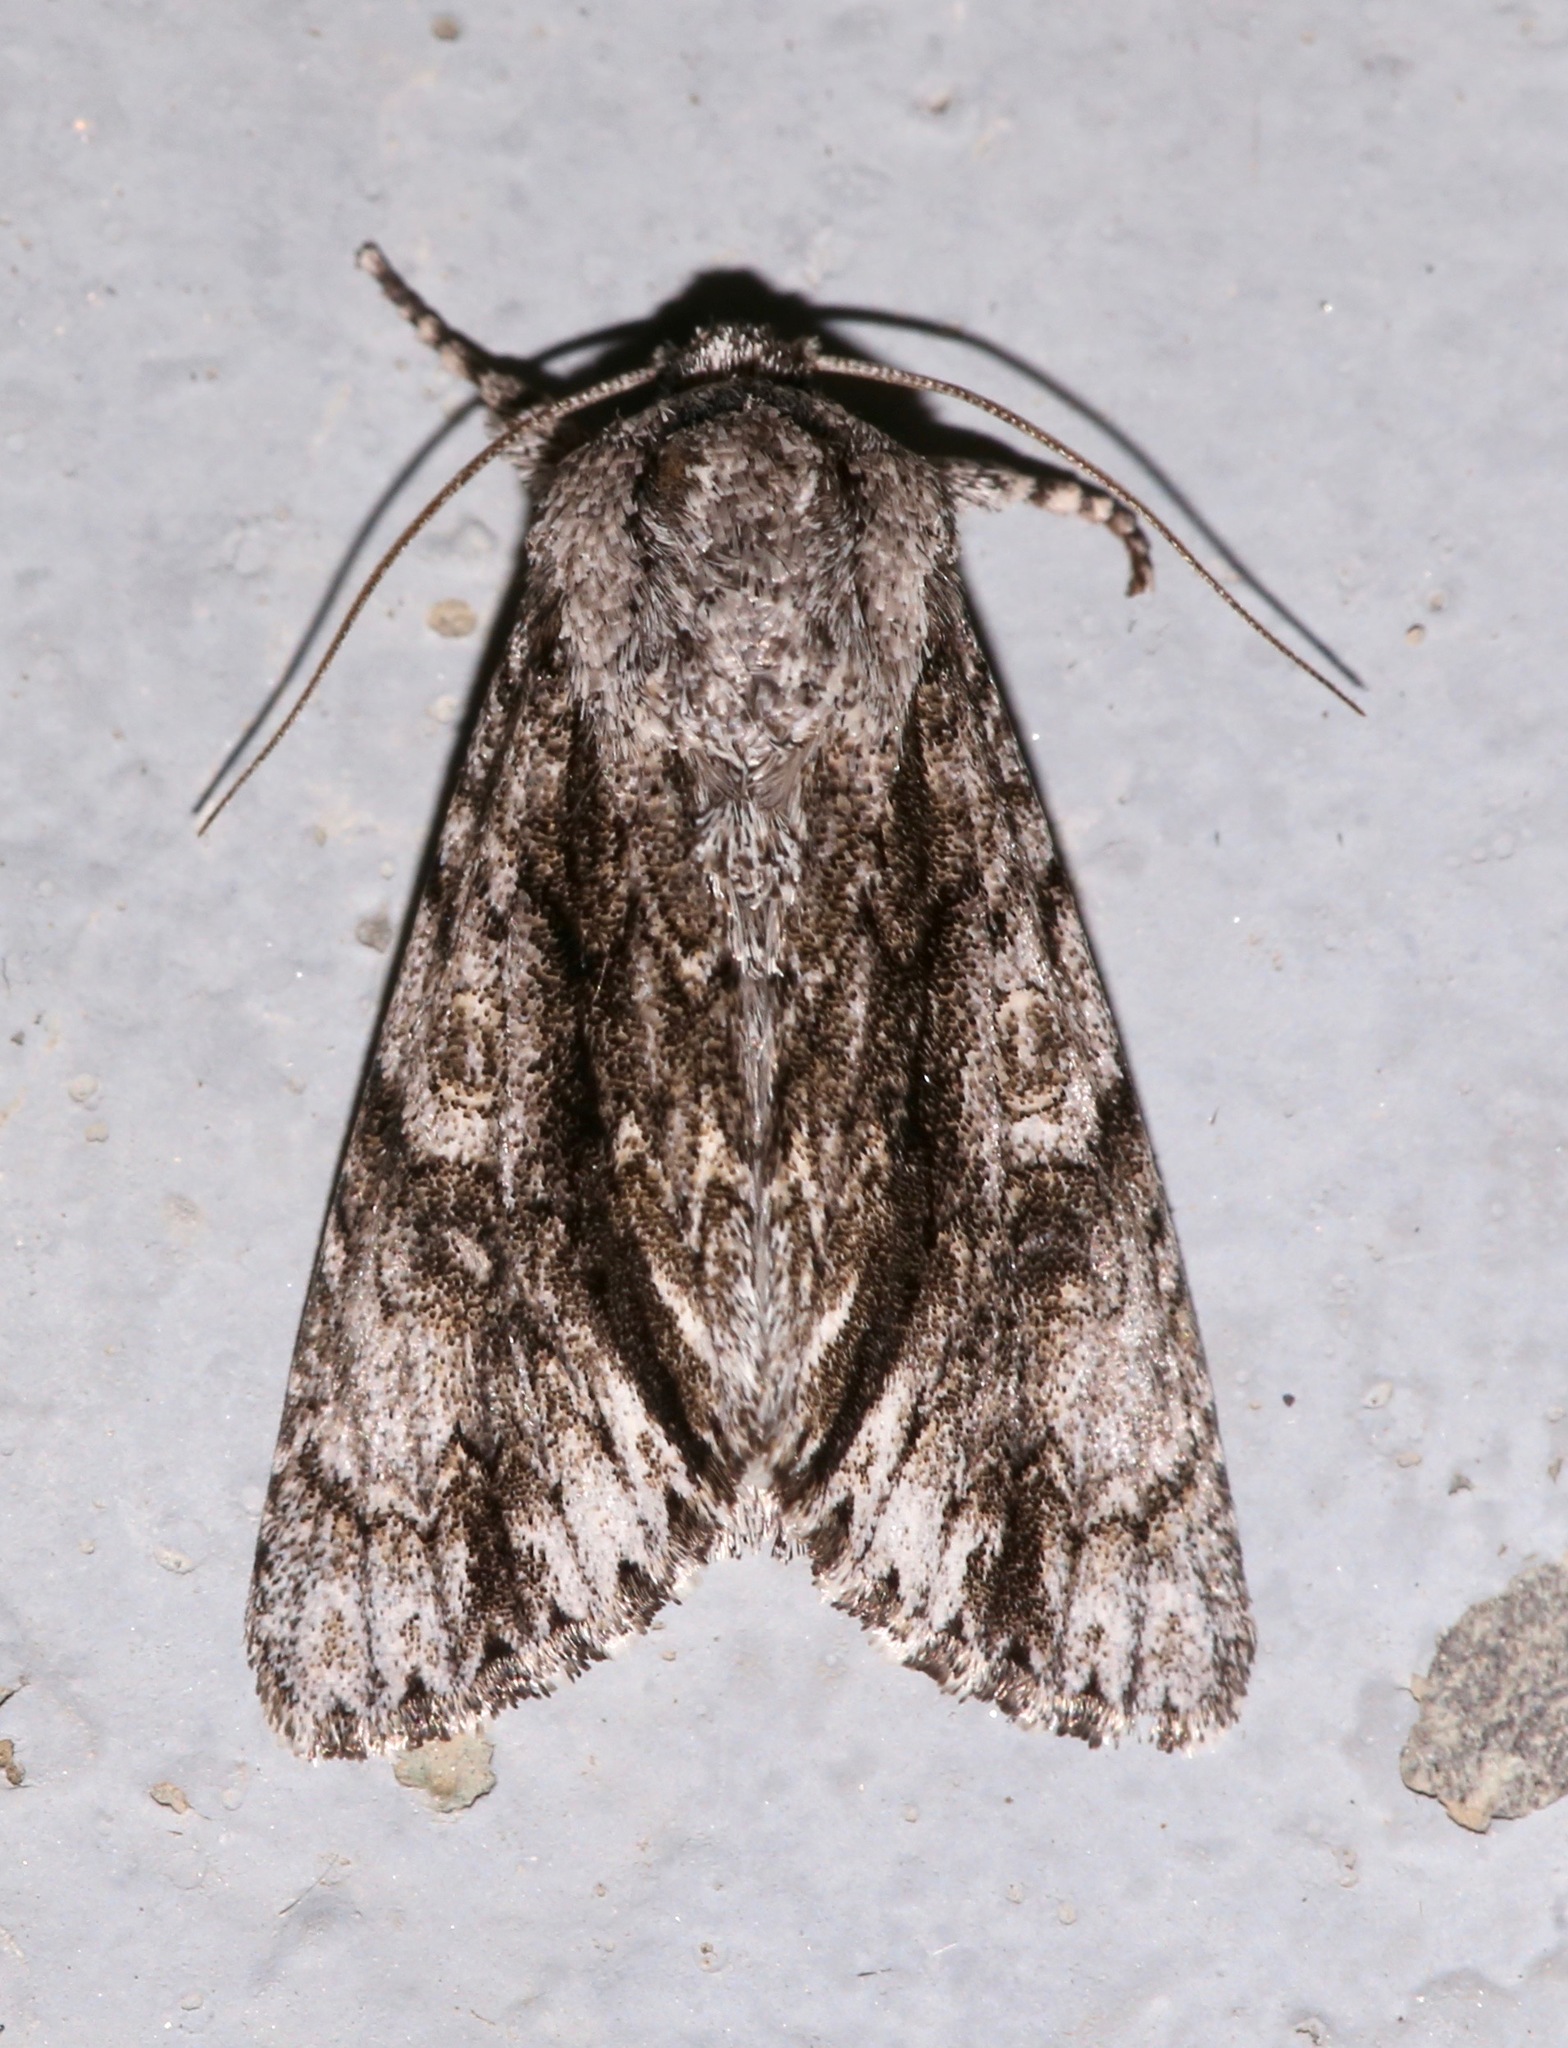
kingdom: Animalia
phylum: Arthropoda
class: Insecta
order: Lepidoptera
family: Noctuidae
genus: Acronicta
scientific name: Acronicta atristrigatus
